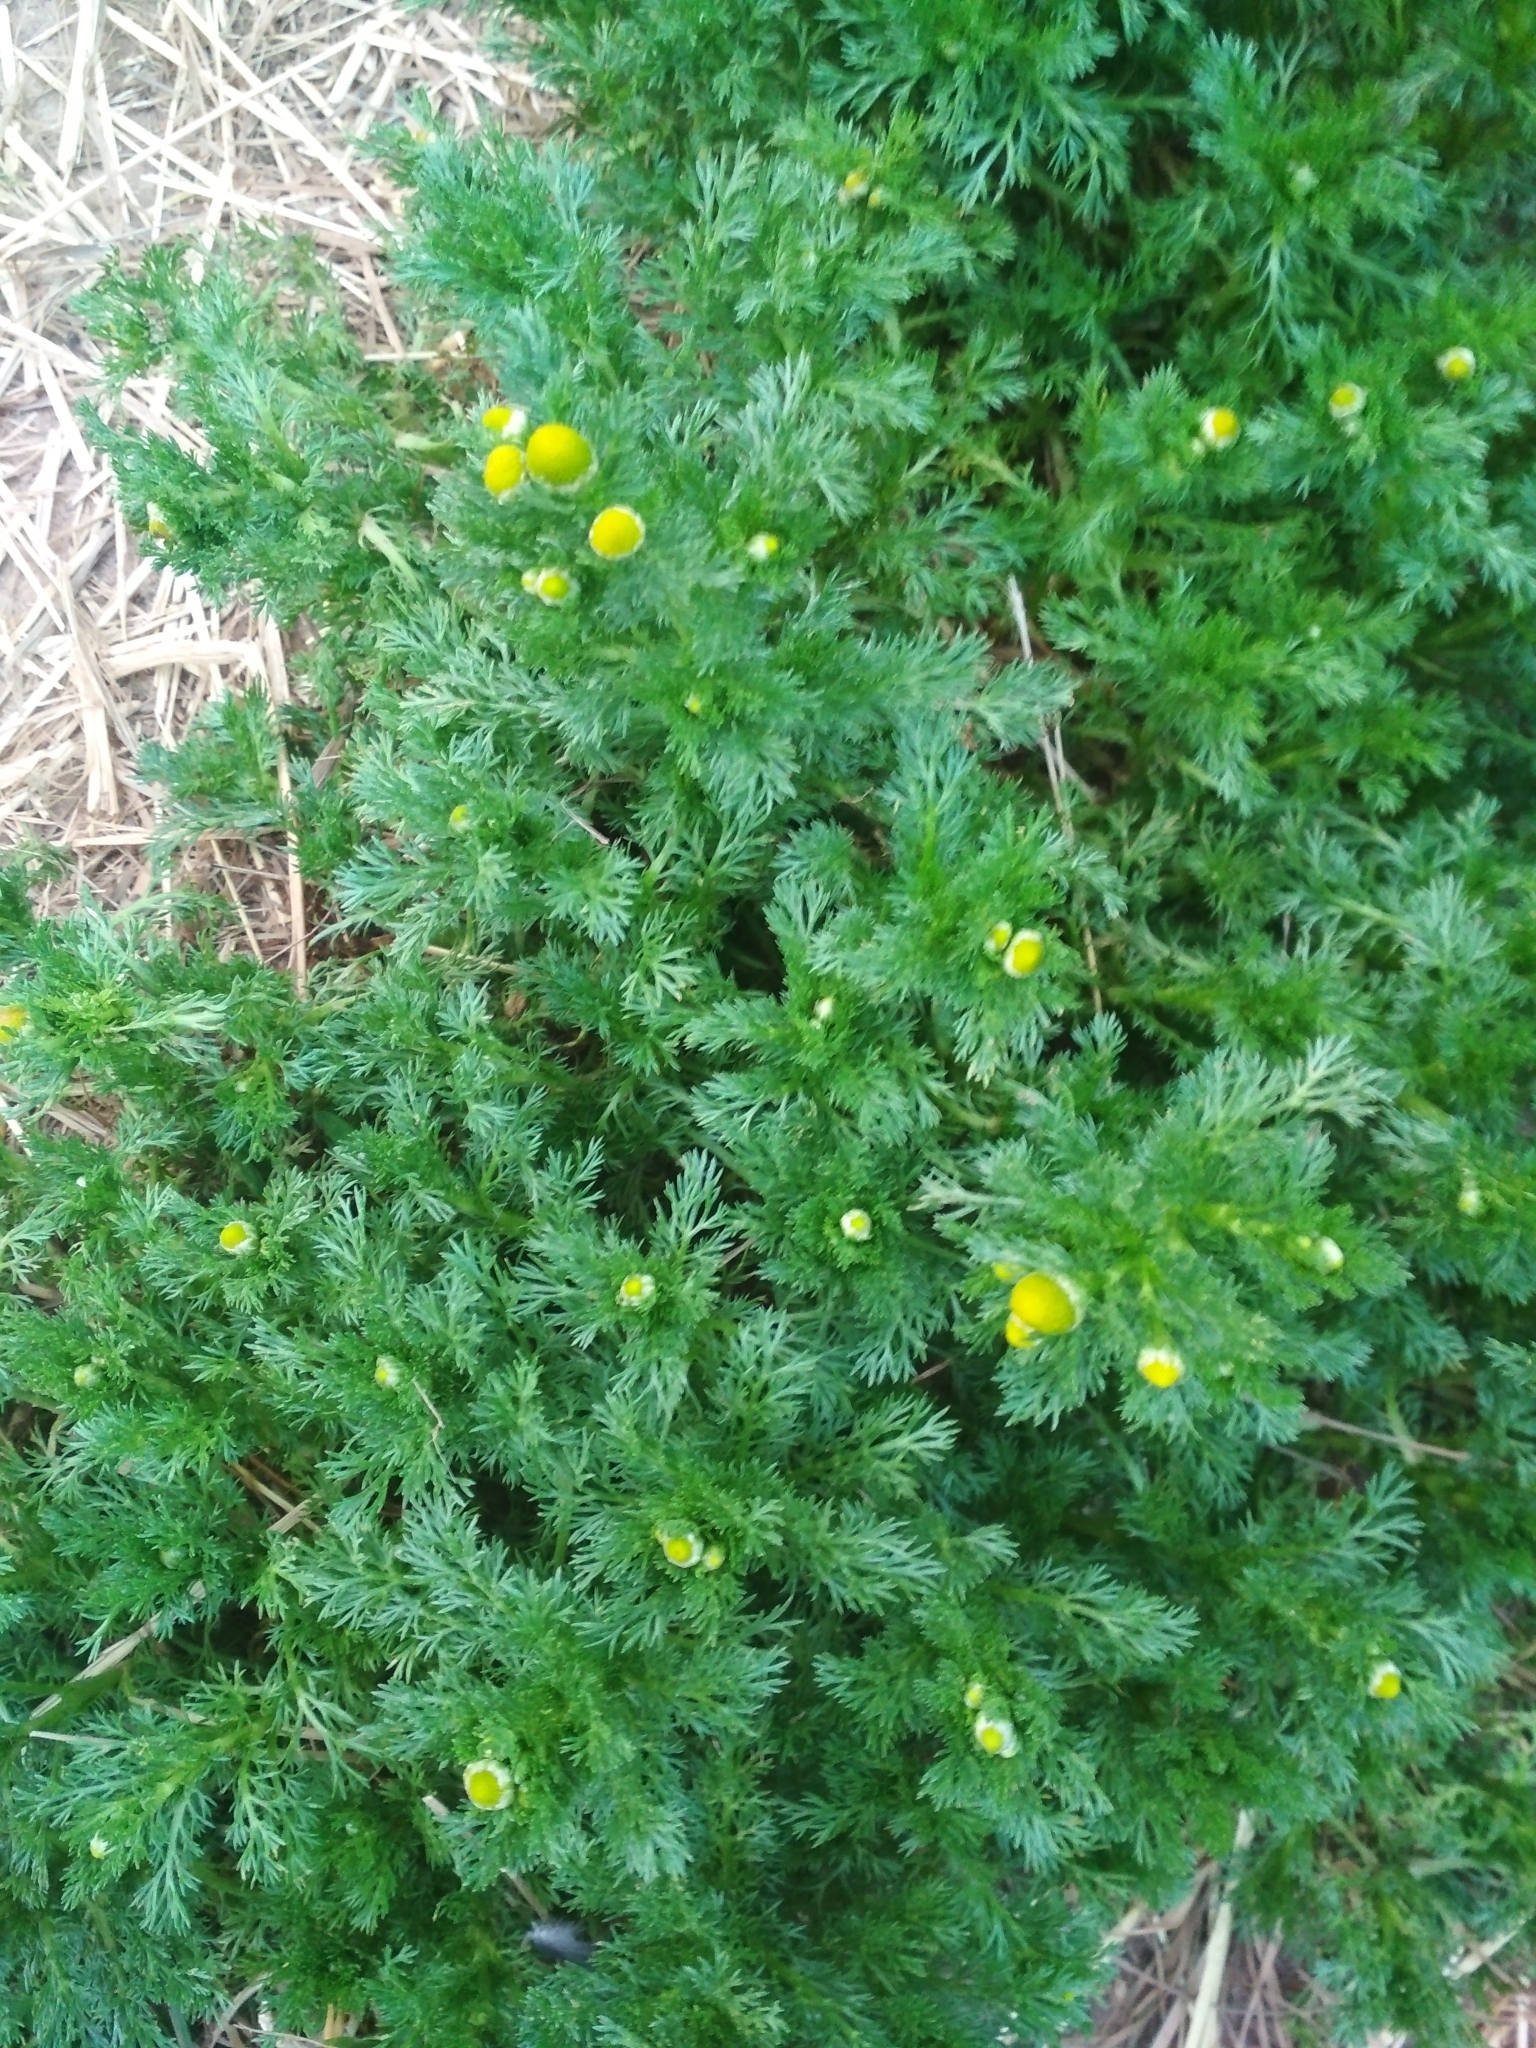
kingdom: Plantae
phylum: Tracheophyta
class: Magnoliopsida
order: Asterales
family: Asteraceae
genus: Matricaria
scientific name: Matricaria discoidea
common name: Disc mayweed
